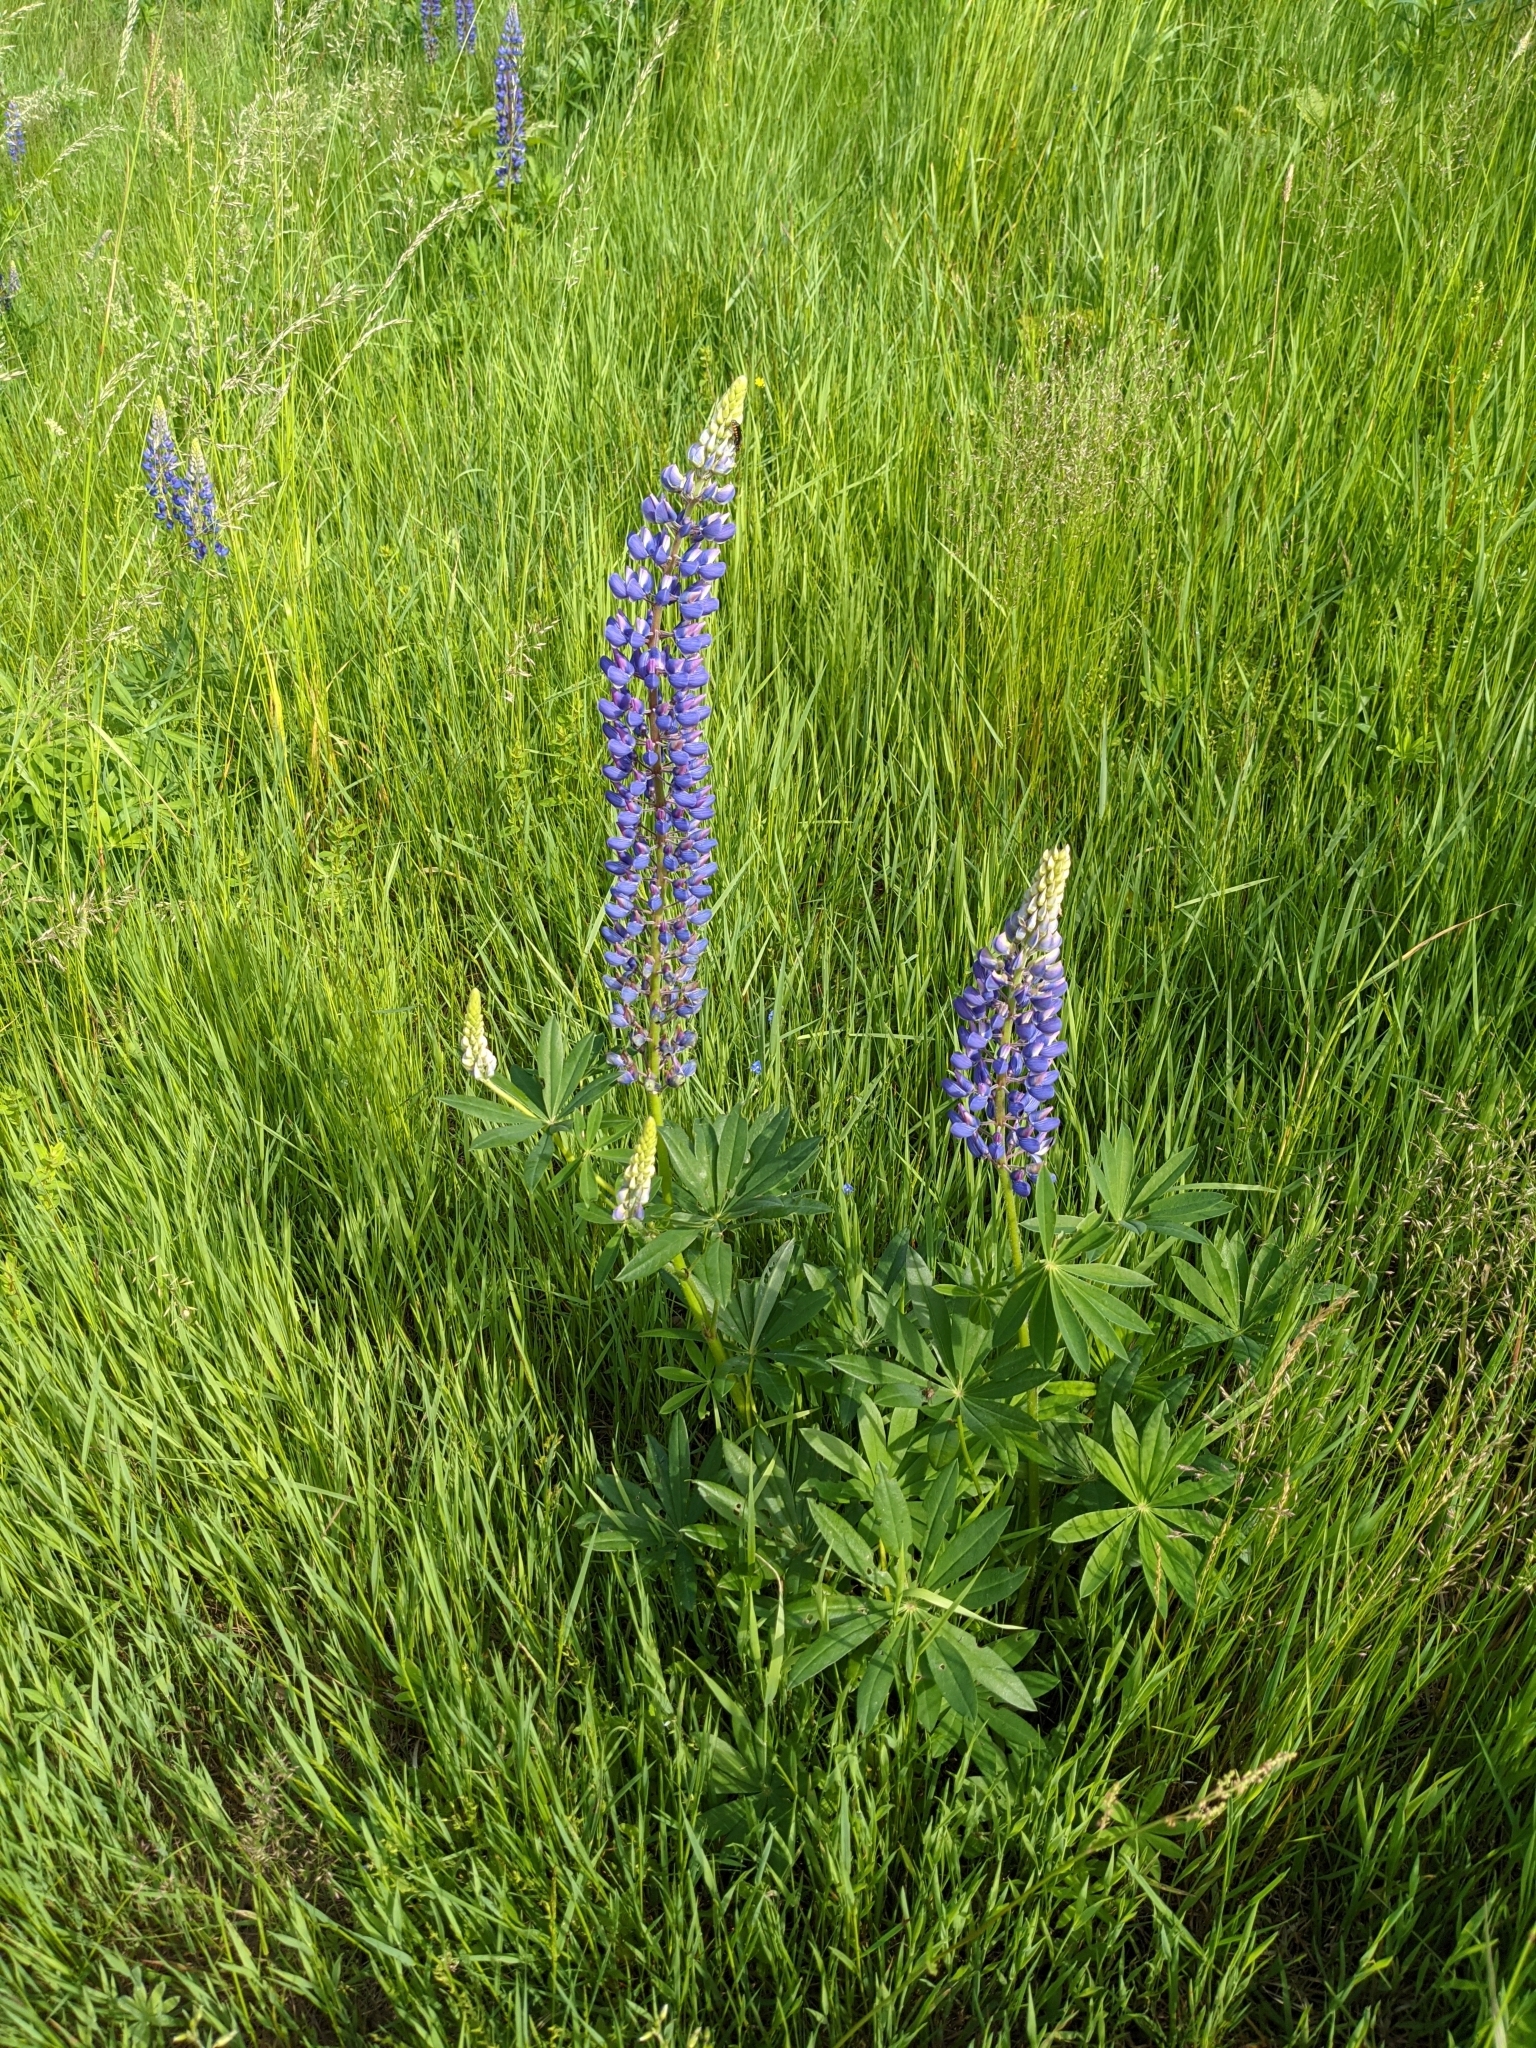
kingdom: Plantae
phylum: Tracheophyta
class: Magnoliopsida
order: Fabales
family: Fabaceae
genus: Lupinus
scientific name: Lupinus polyphyllus
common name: Garden lupin
